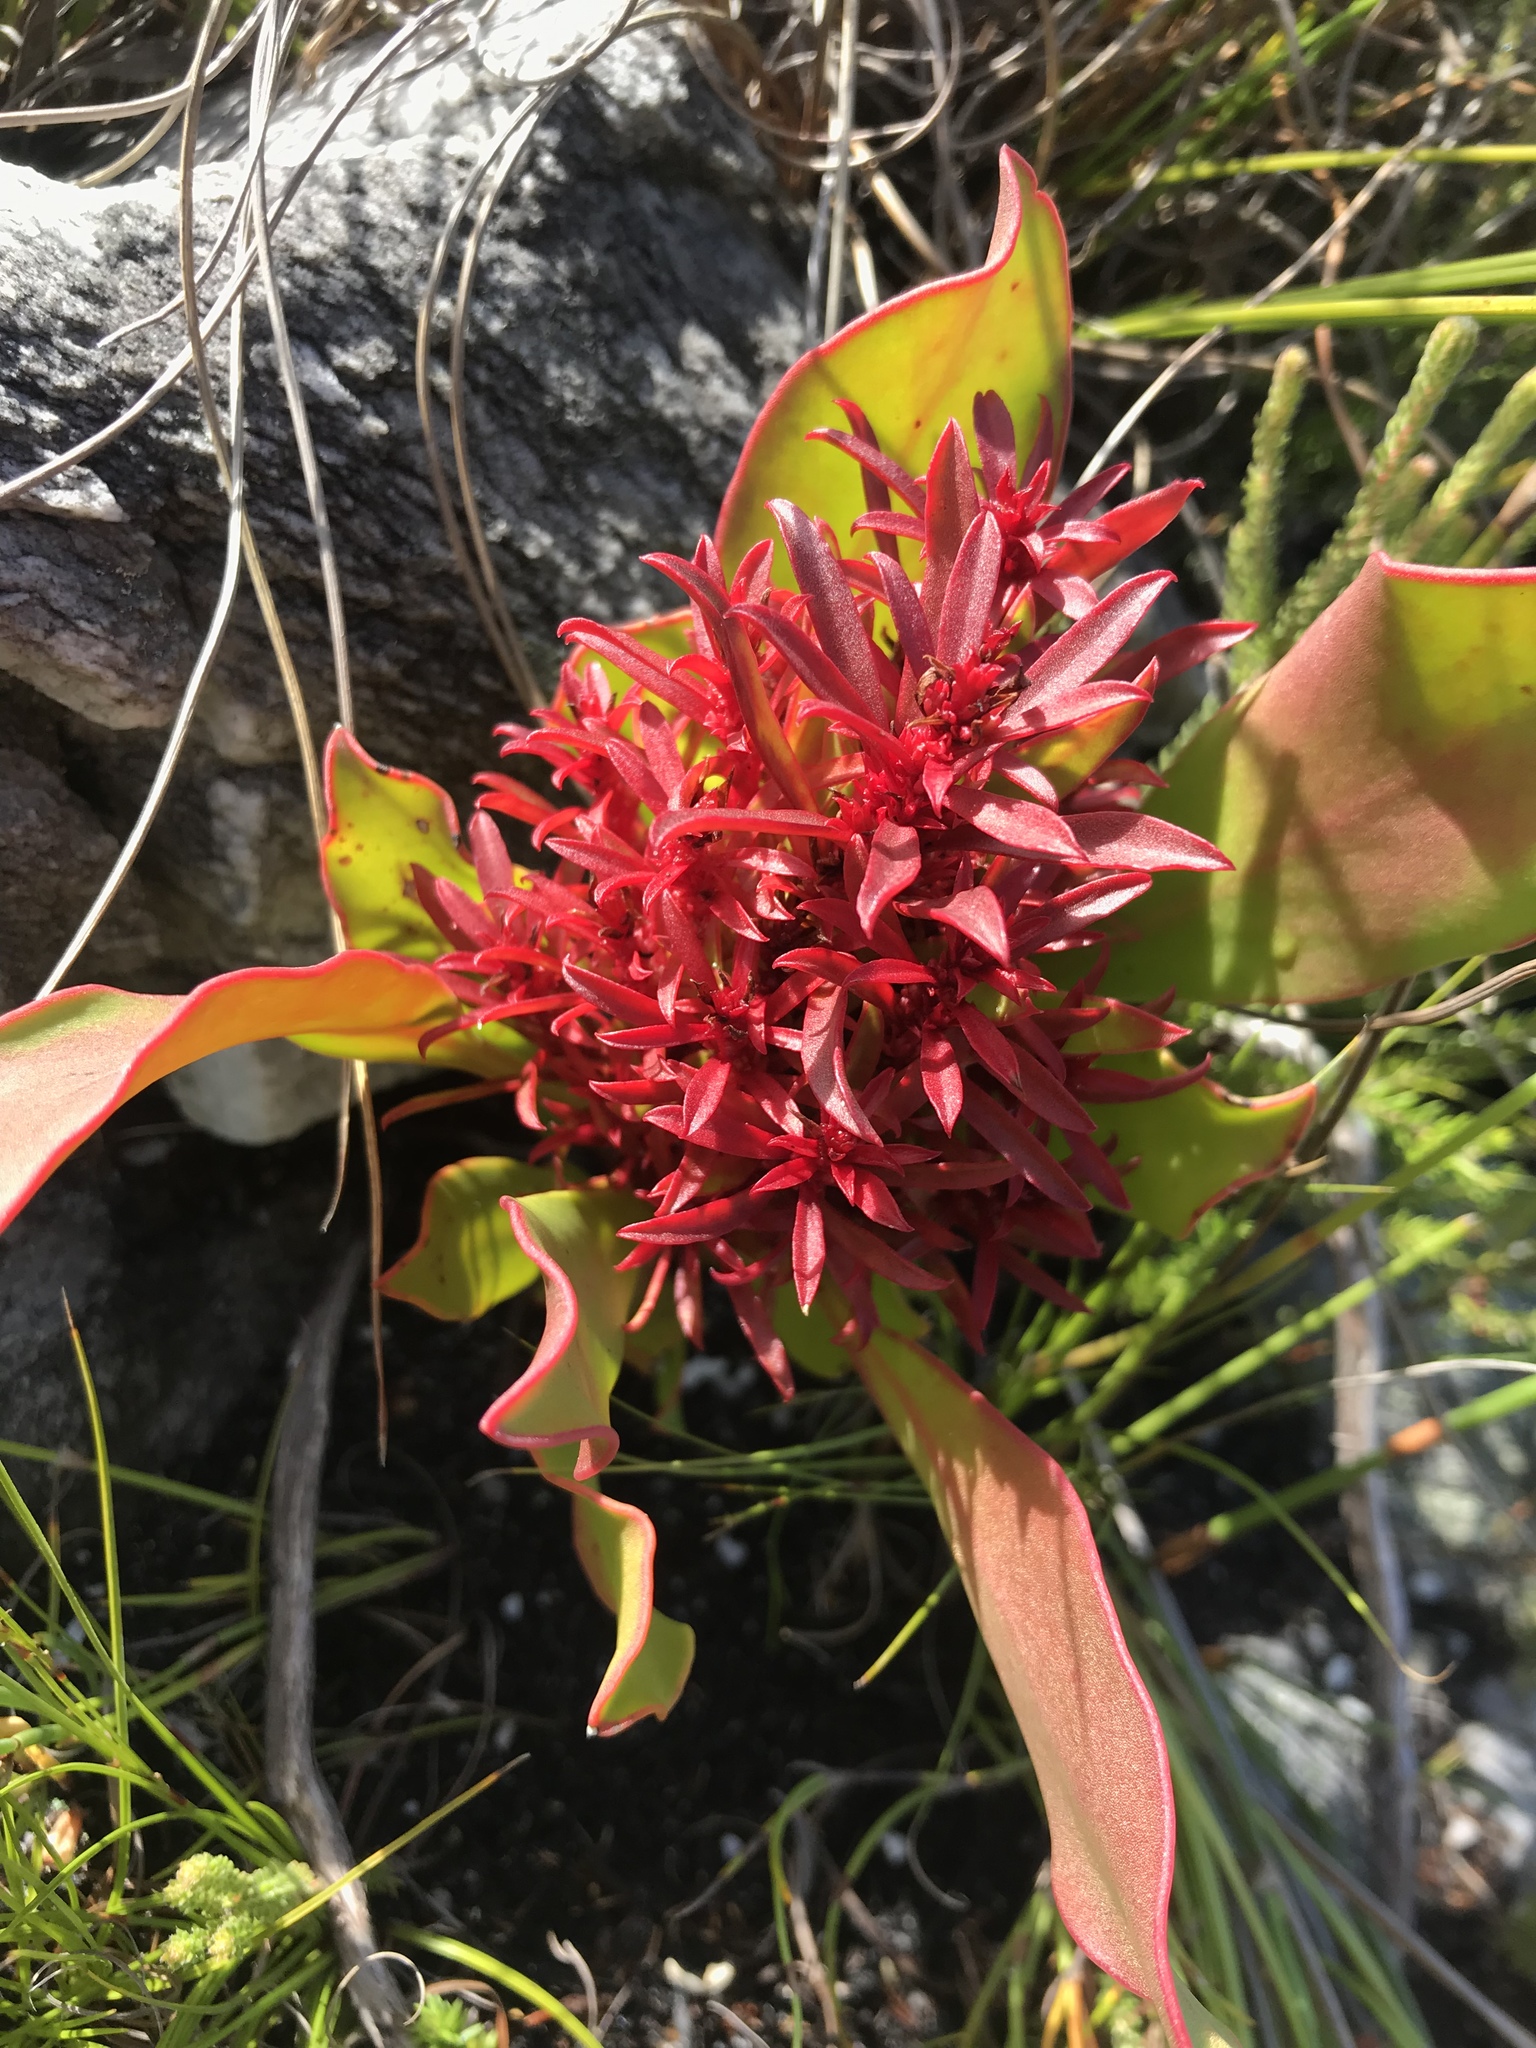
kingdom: Bacteria
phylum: Firmicutes
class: Bacilli
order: Acholeplasmatales
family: Acholeplasmataceae
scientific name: Acholeplasmataceae
